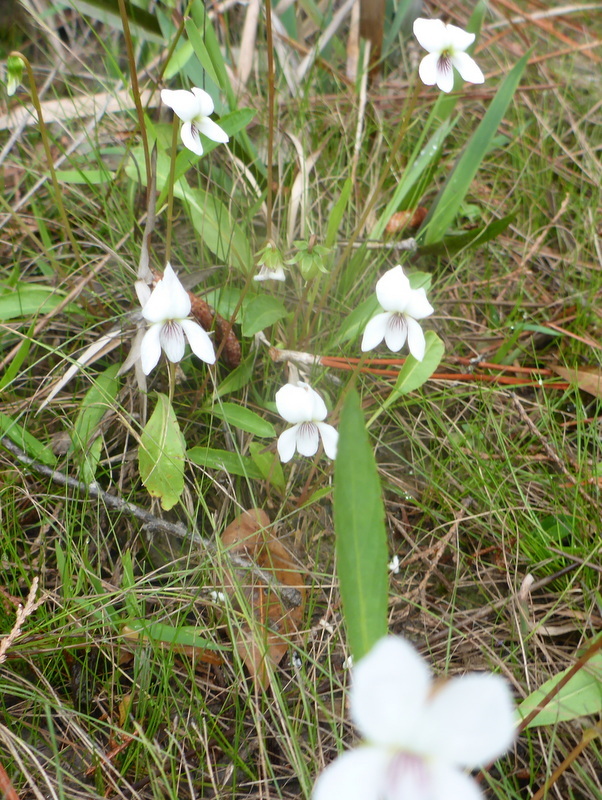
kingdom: Plantae
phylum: Tracheophyta
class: Magnoliopsida
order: Malpighiales
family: Violaceae
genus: Viola
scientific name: Viola lanceolata
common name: Bog white violet
